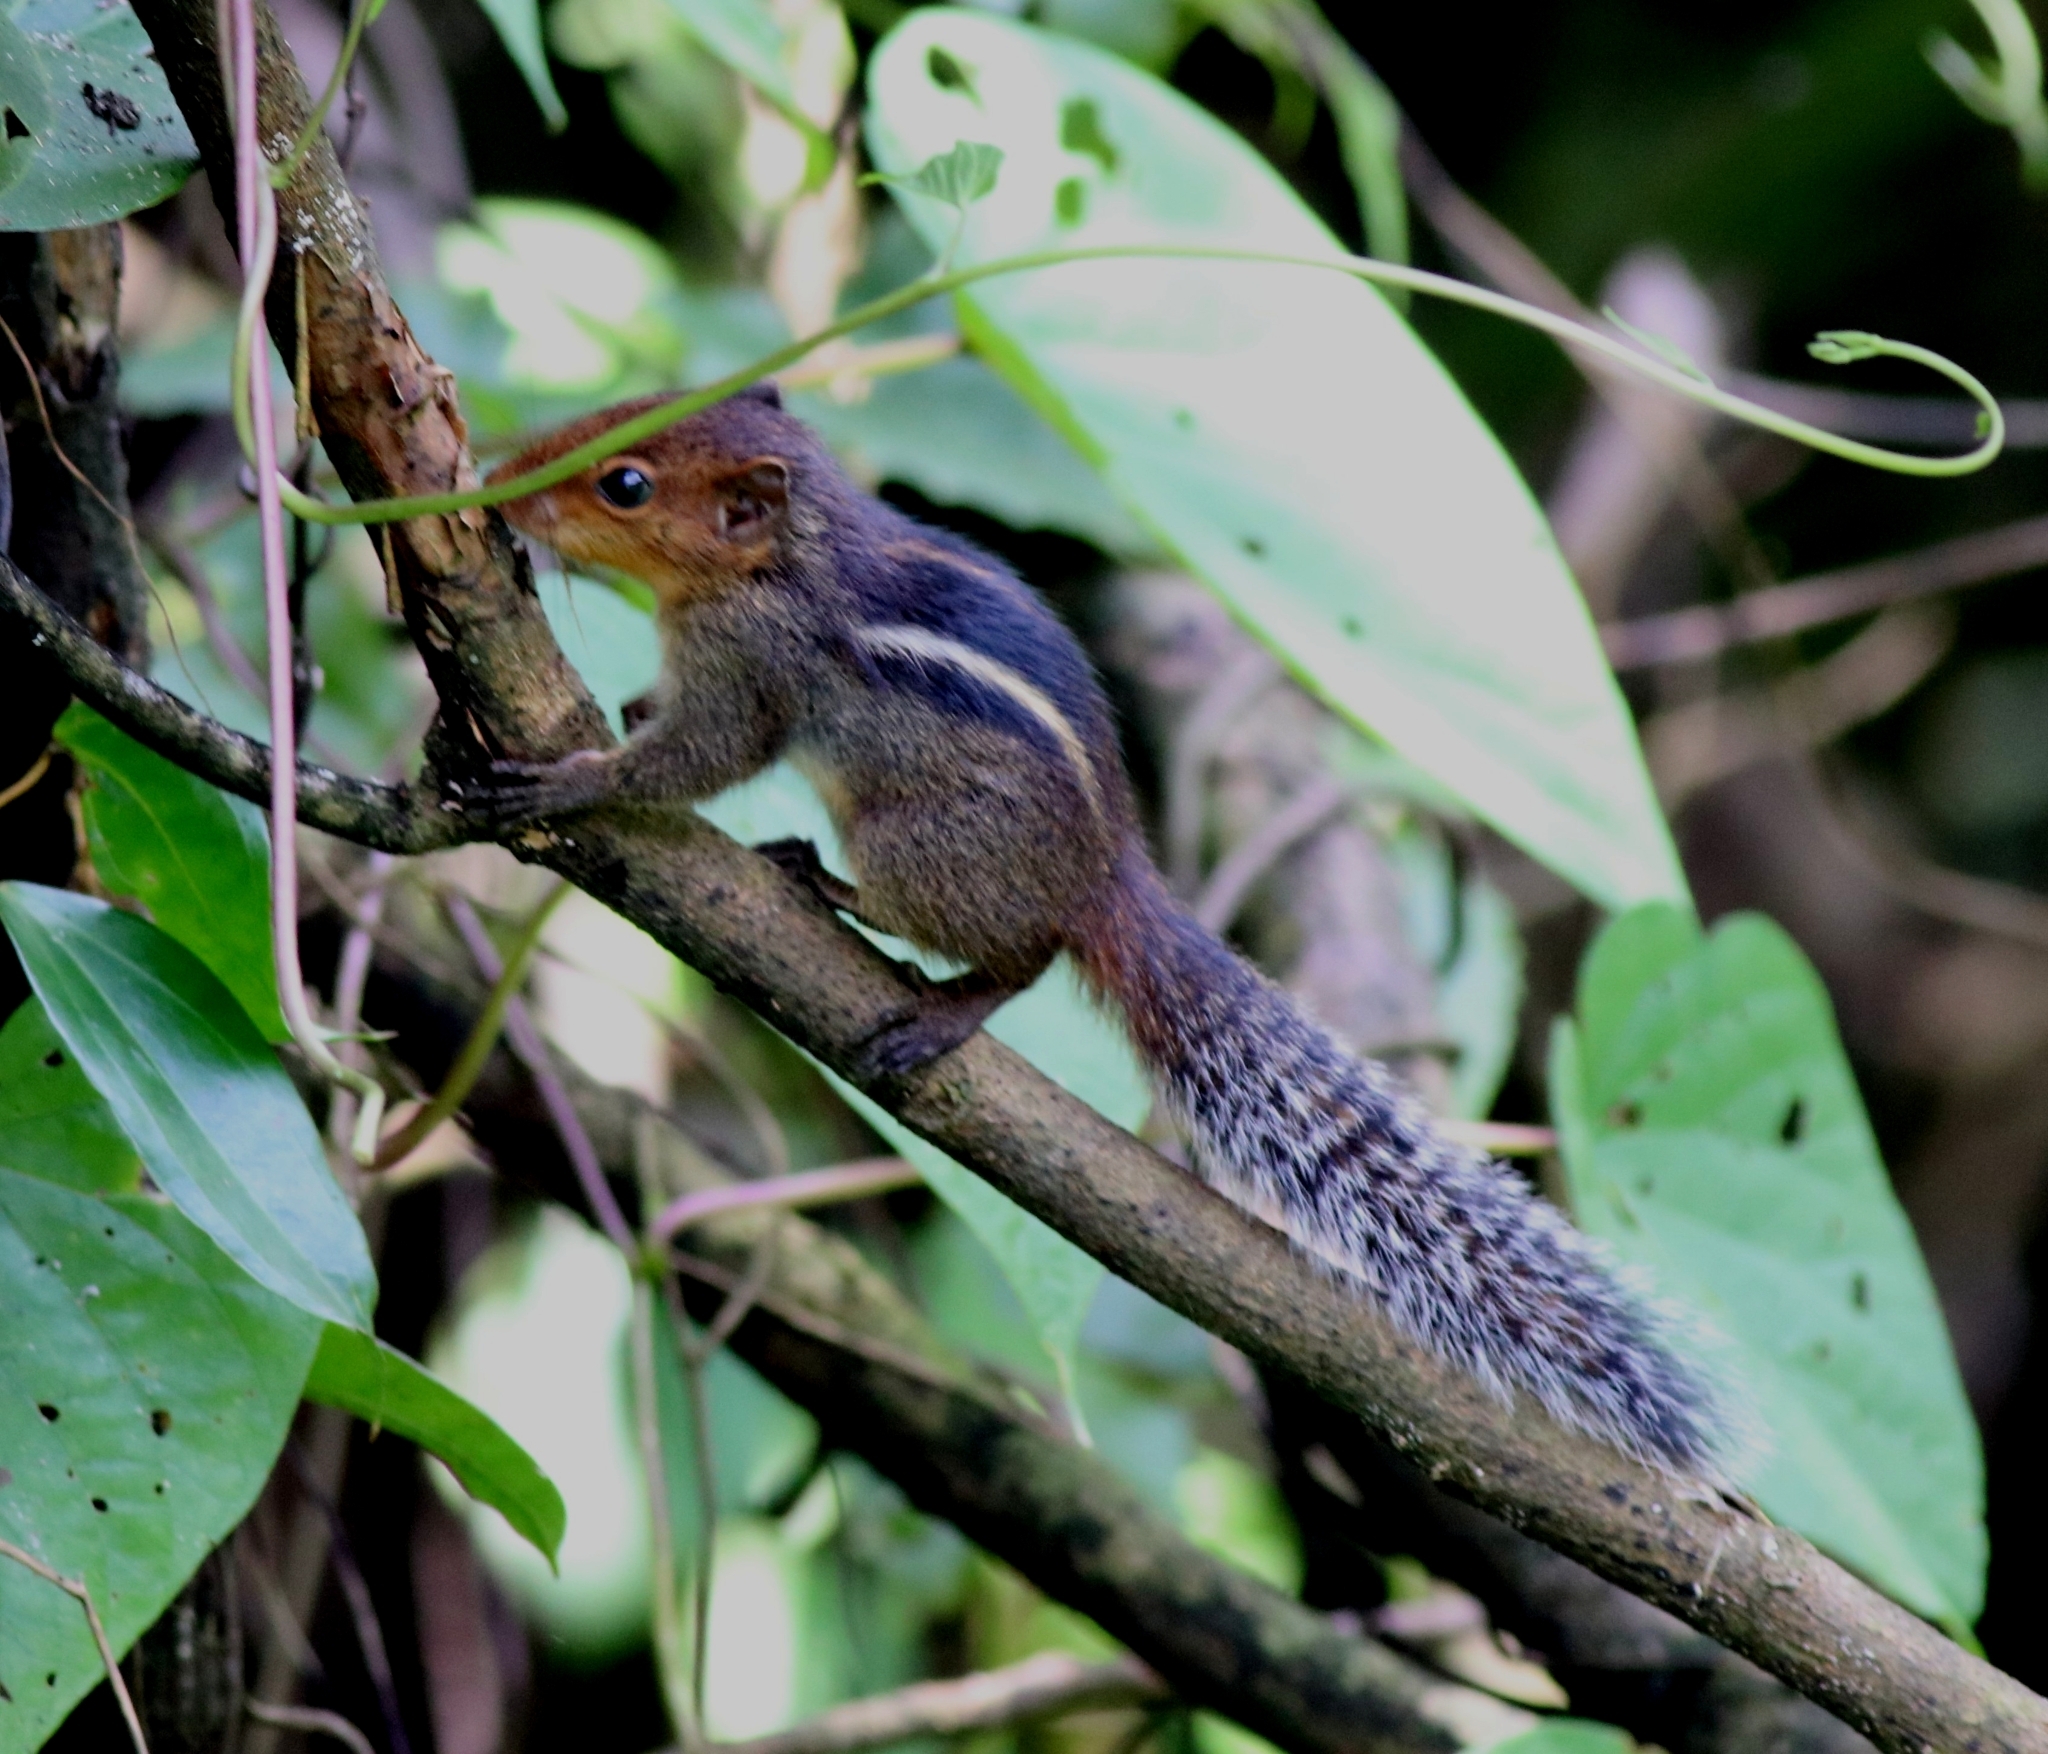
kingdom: Animalia
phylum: Chordata
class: Mammalia
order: Rodentia
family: Sciuridae
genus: Funambulus
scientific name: Funambulus tristriatus
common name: Jungle palm squirrel
